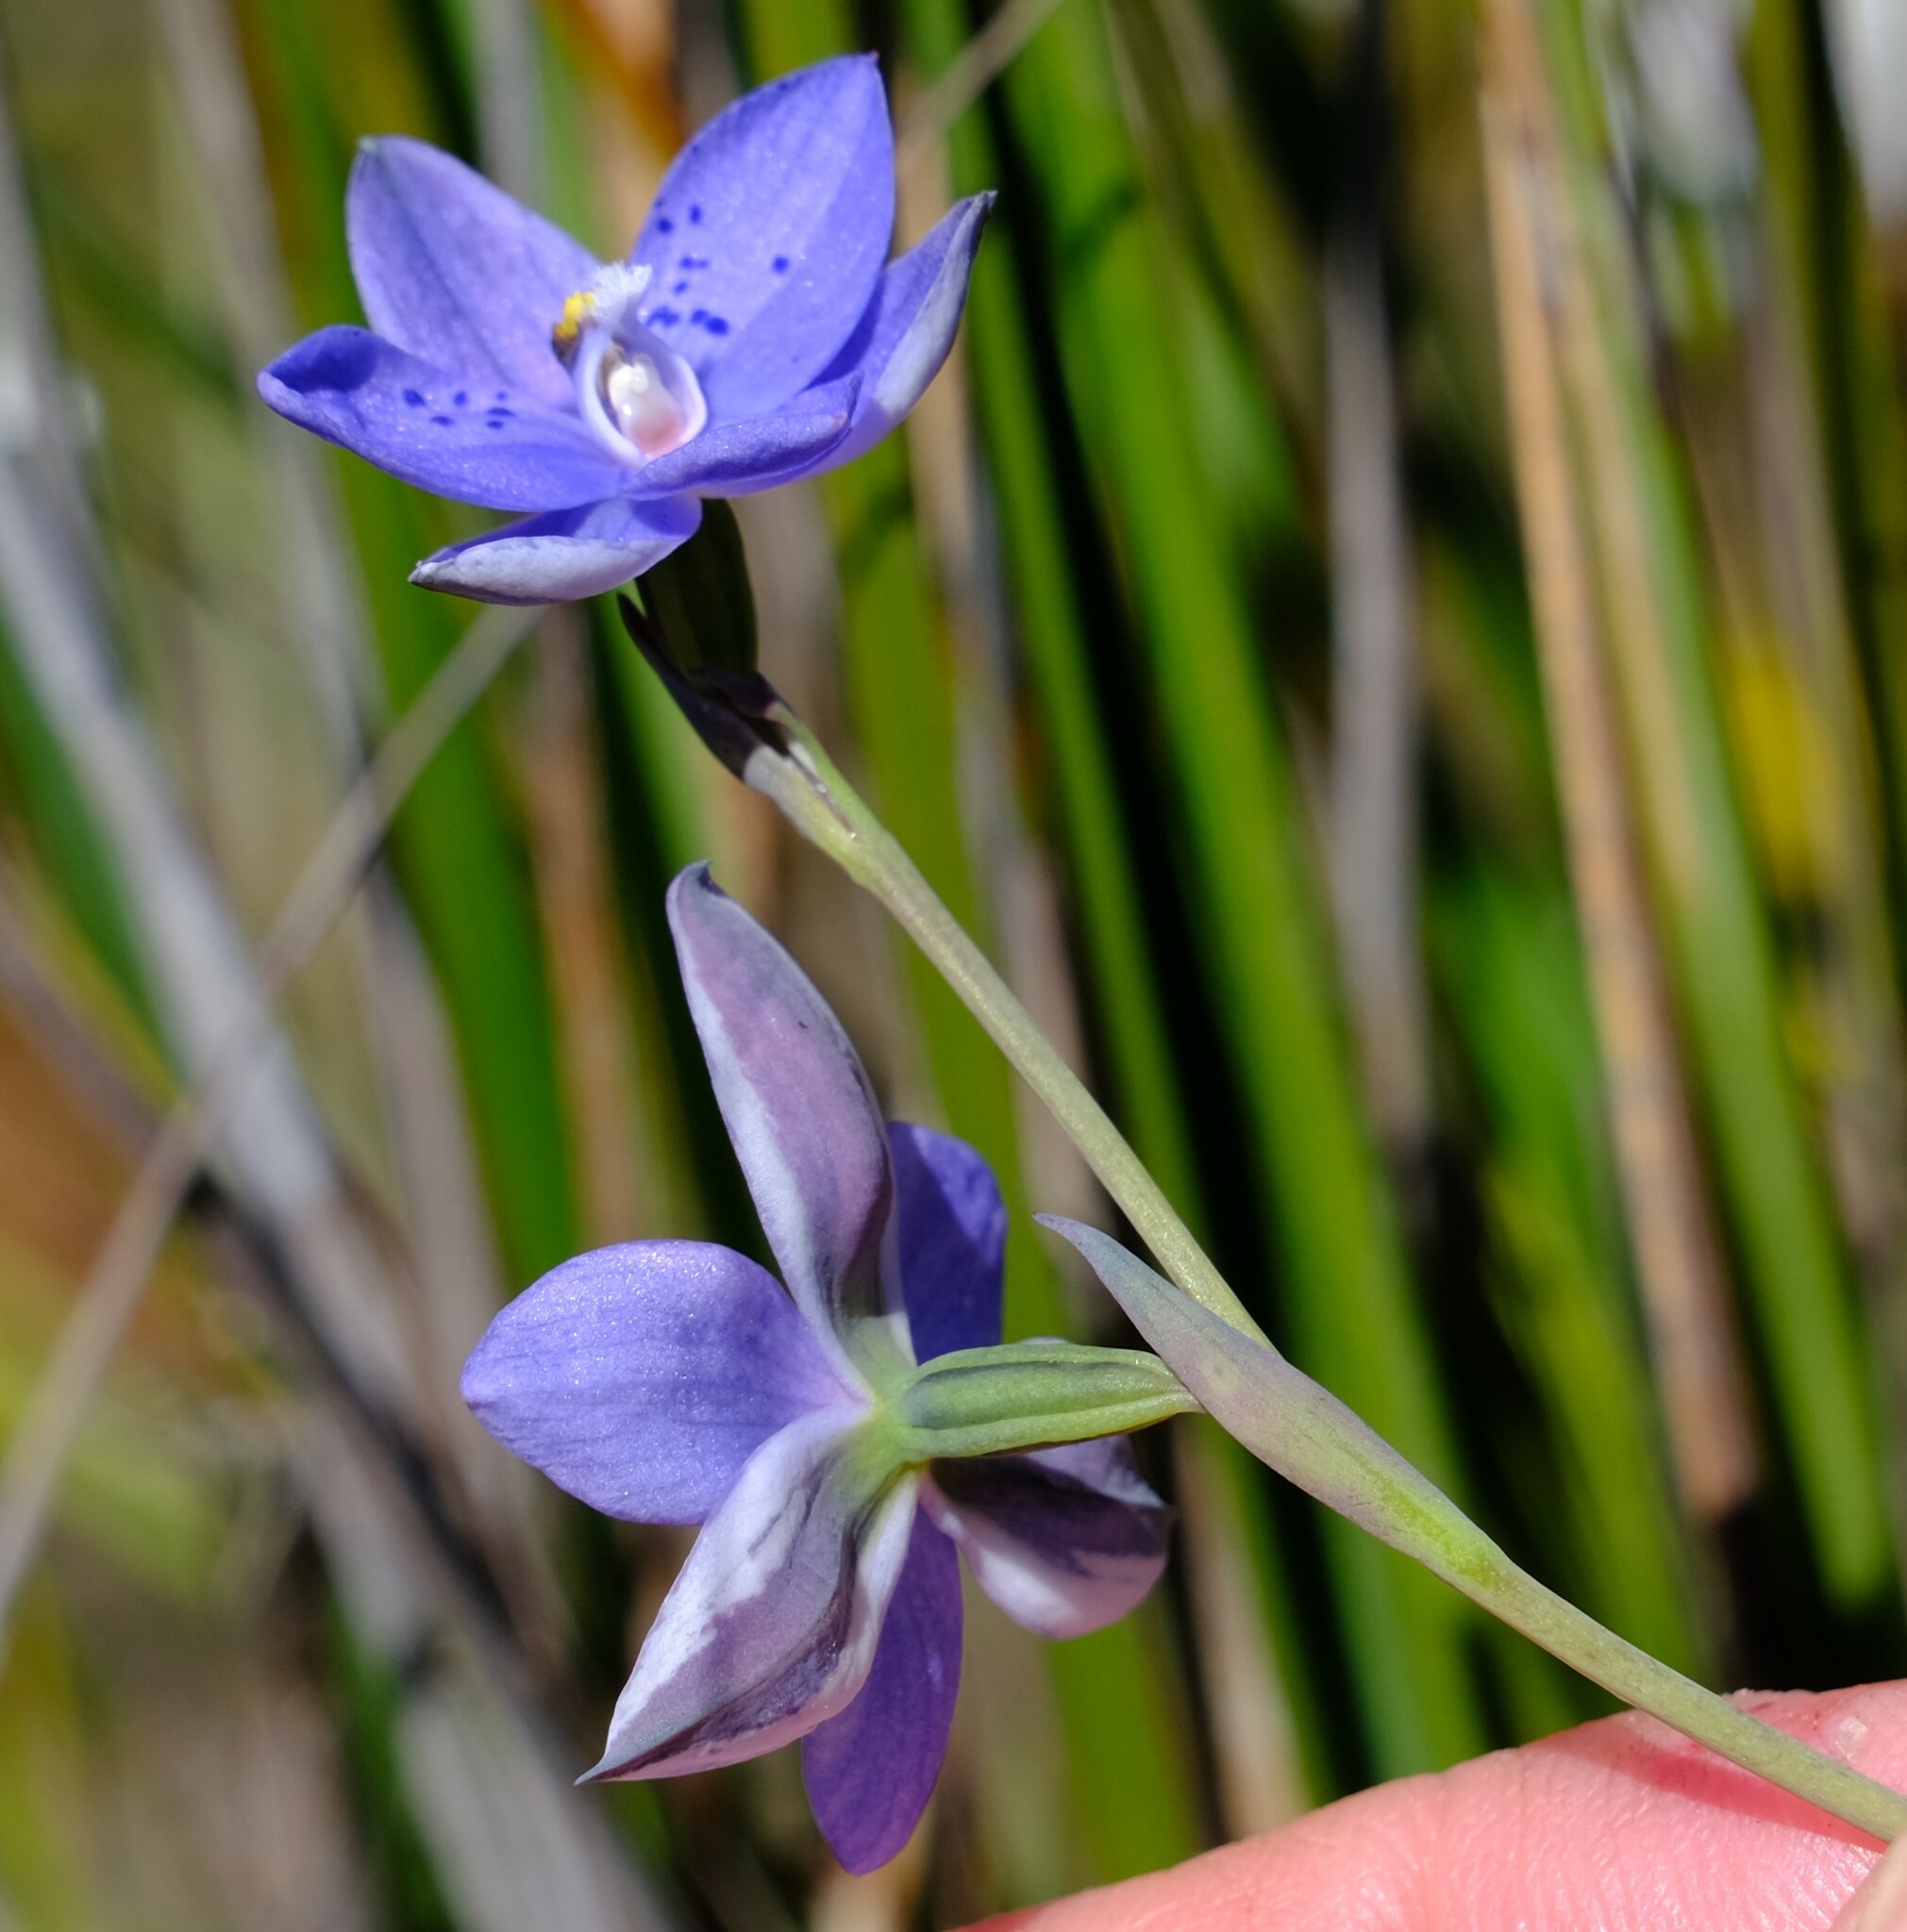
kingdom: Plantae
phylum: Tracheophyta
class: Liliopsida
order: Asparagales
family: Orchidaceae
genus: Thelymitra
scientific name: Thelymitra ixioides
